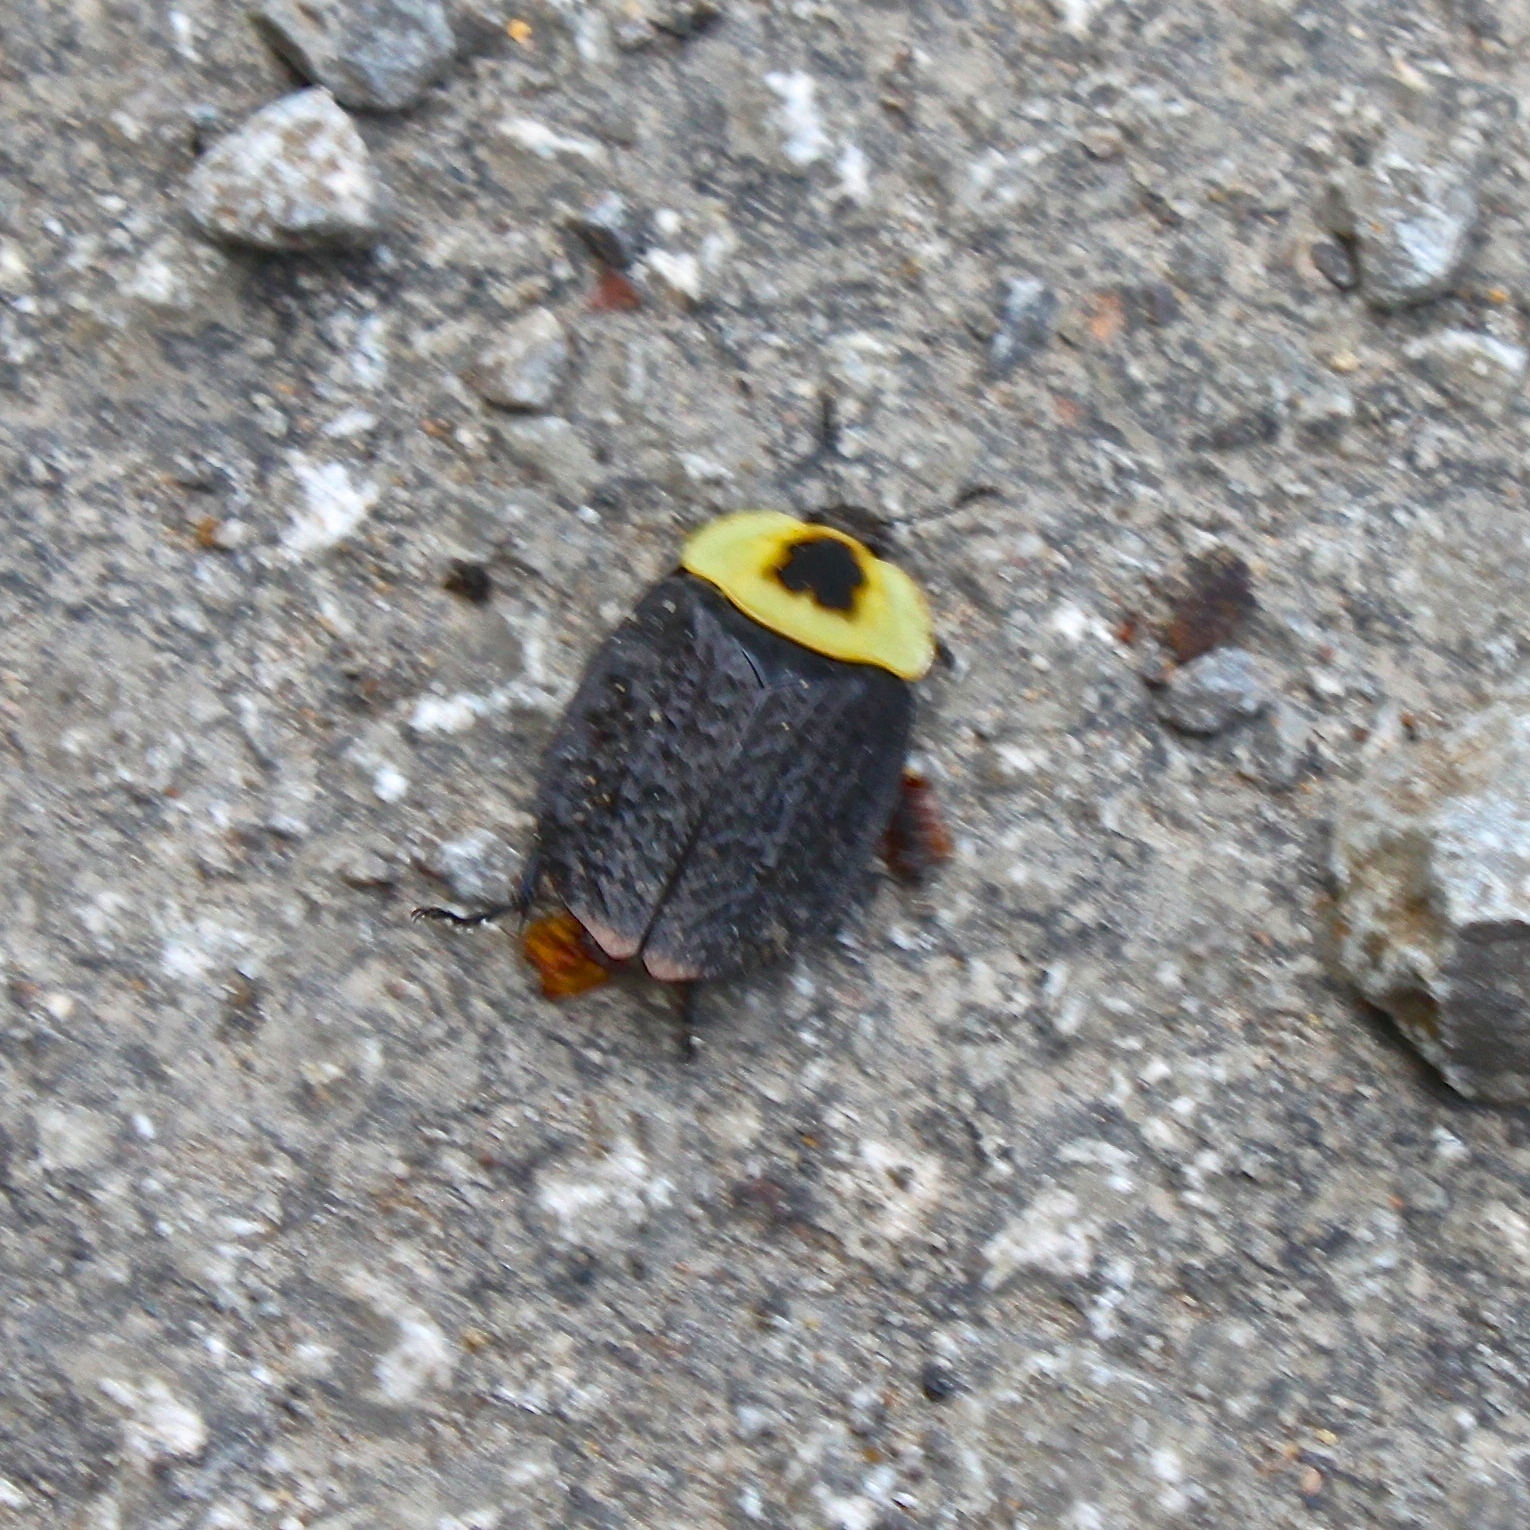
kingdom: Animalia
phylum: Arthropoda
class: Insecta
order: Coleoptera
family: Staphylinidae
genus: Necrophila
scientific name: Necrophila americana
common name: American carrion beetle
